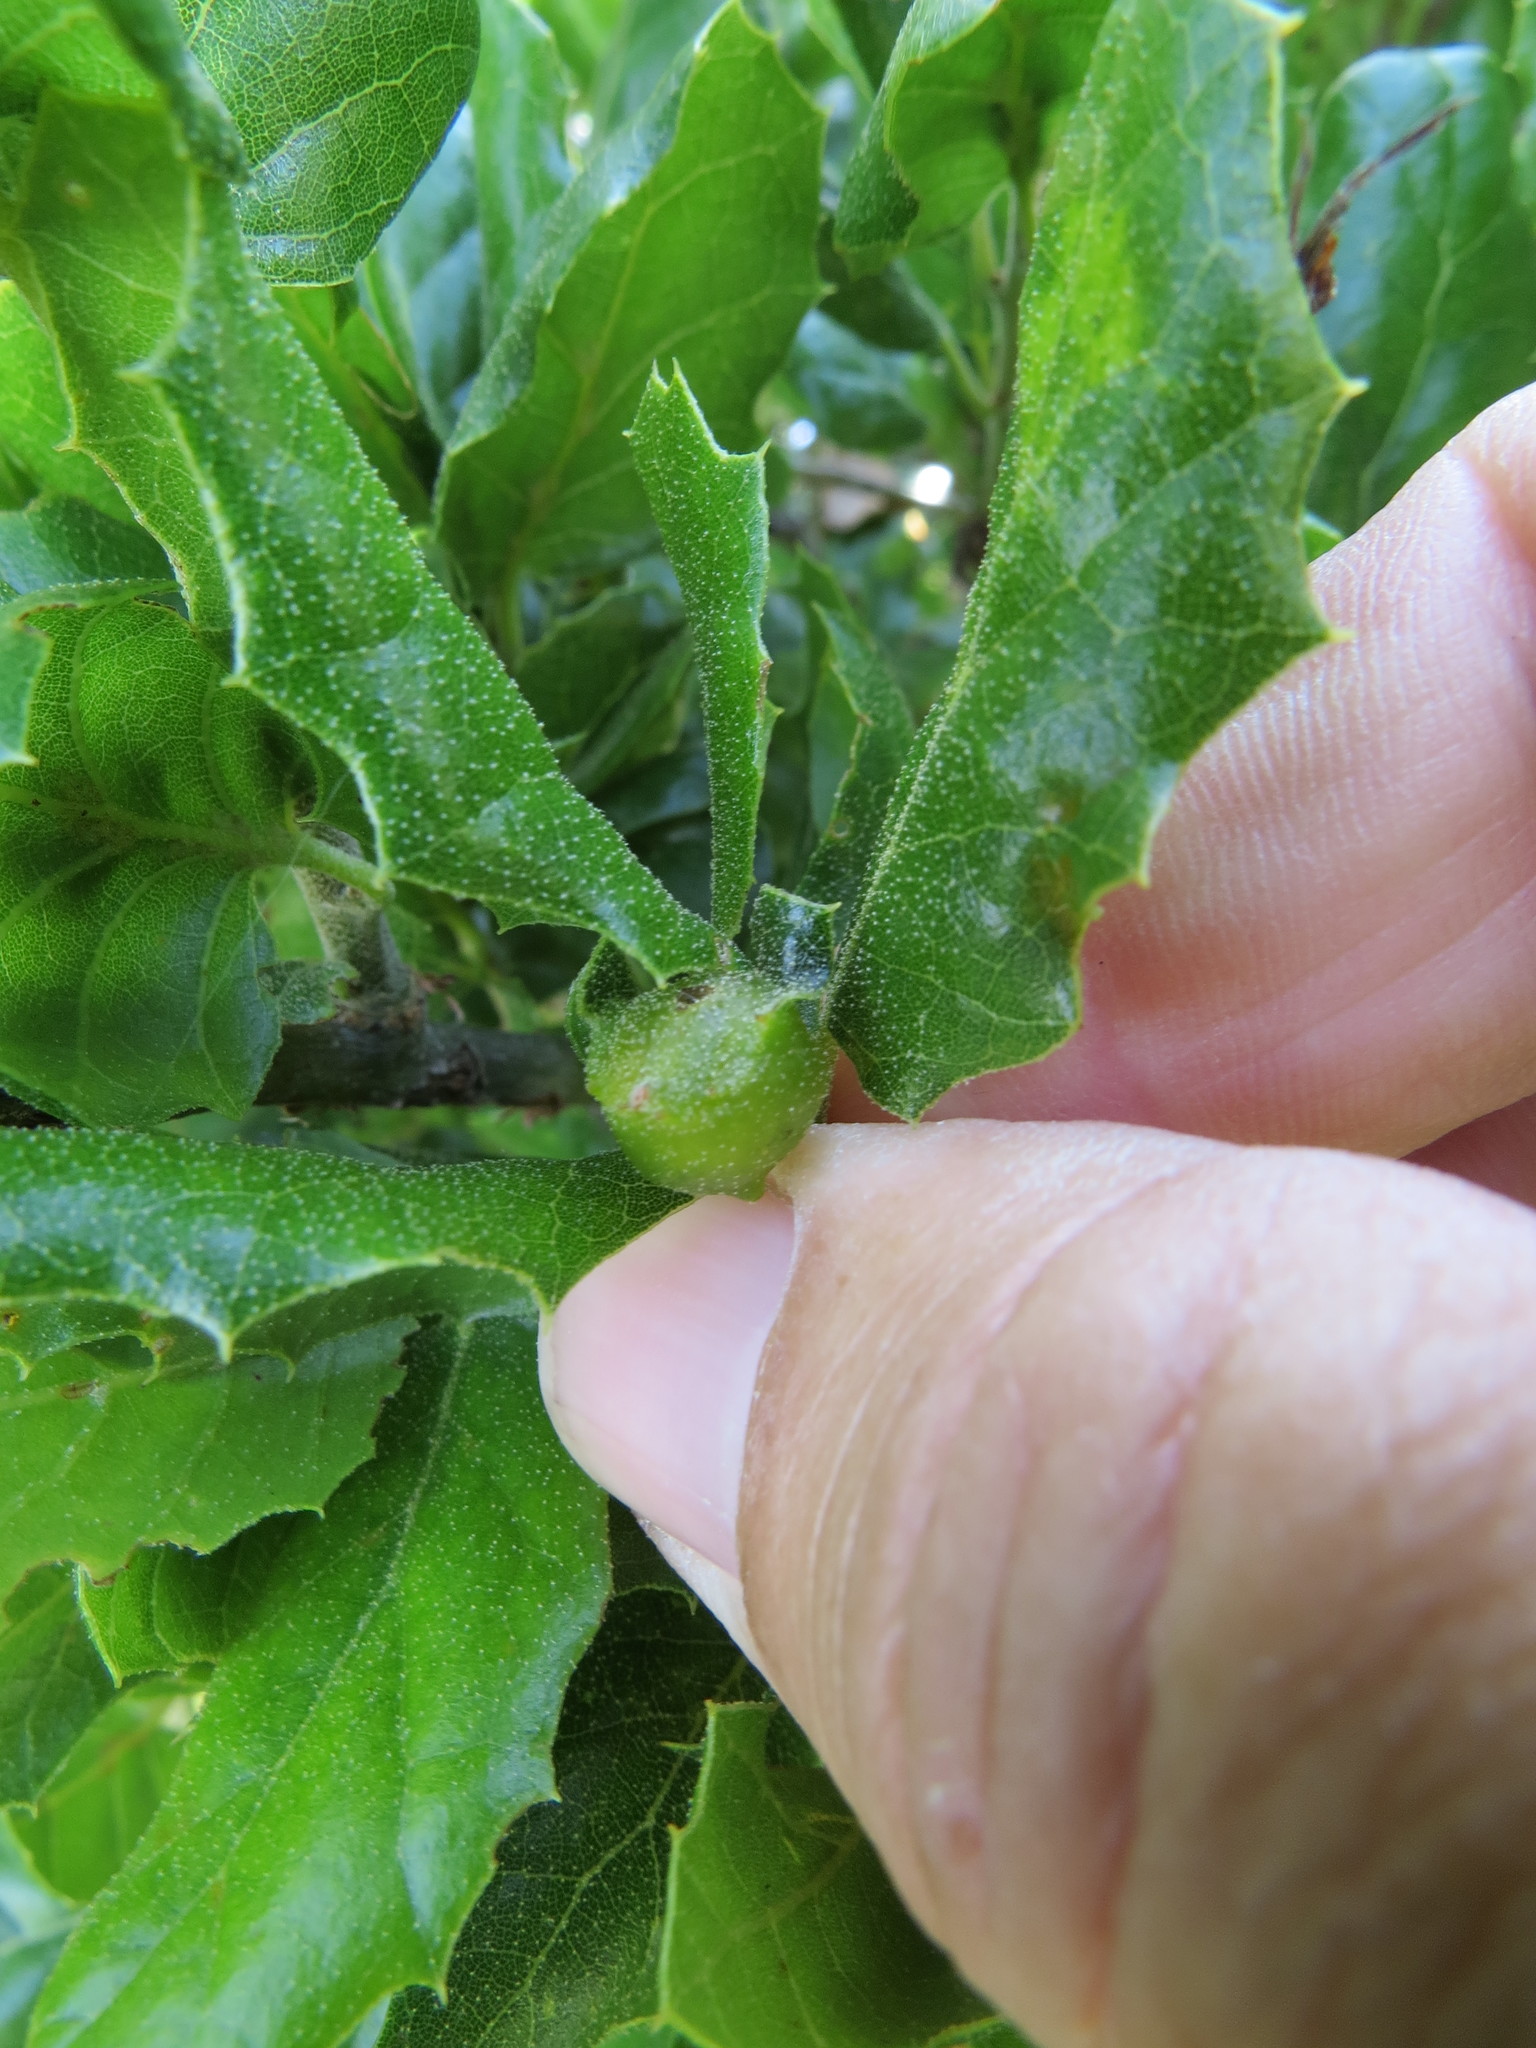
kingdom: Animalia
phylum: Arthropoda
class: Insecta
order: Hymenoptera
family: Cynipidae
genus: Callirhytis
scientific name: Callirhytis
